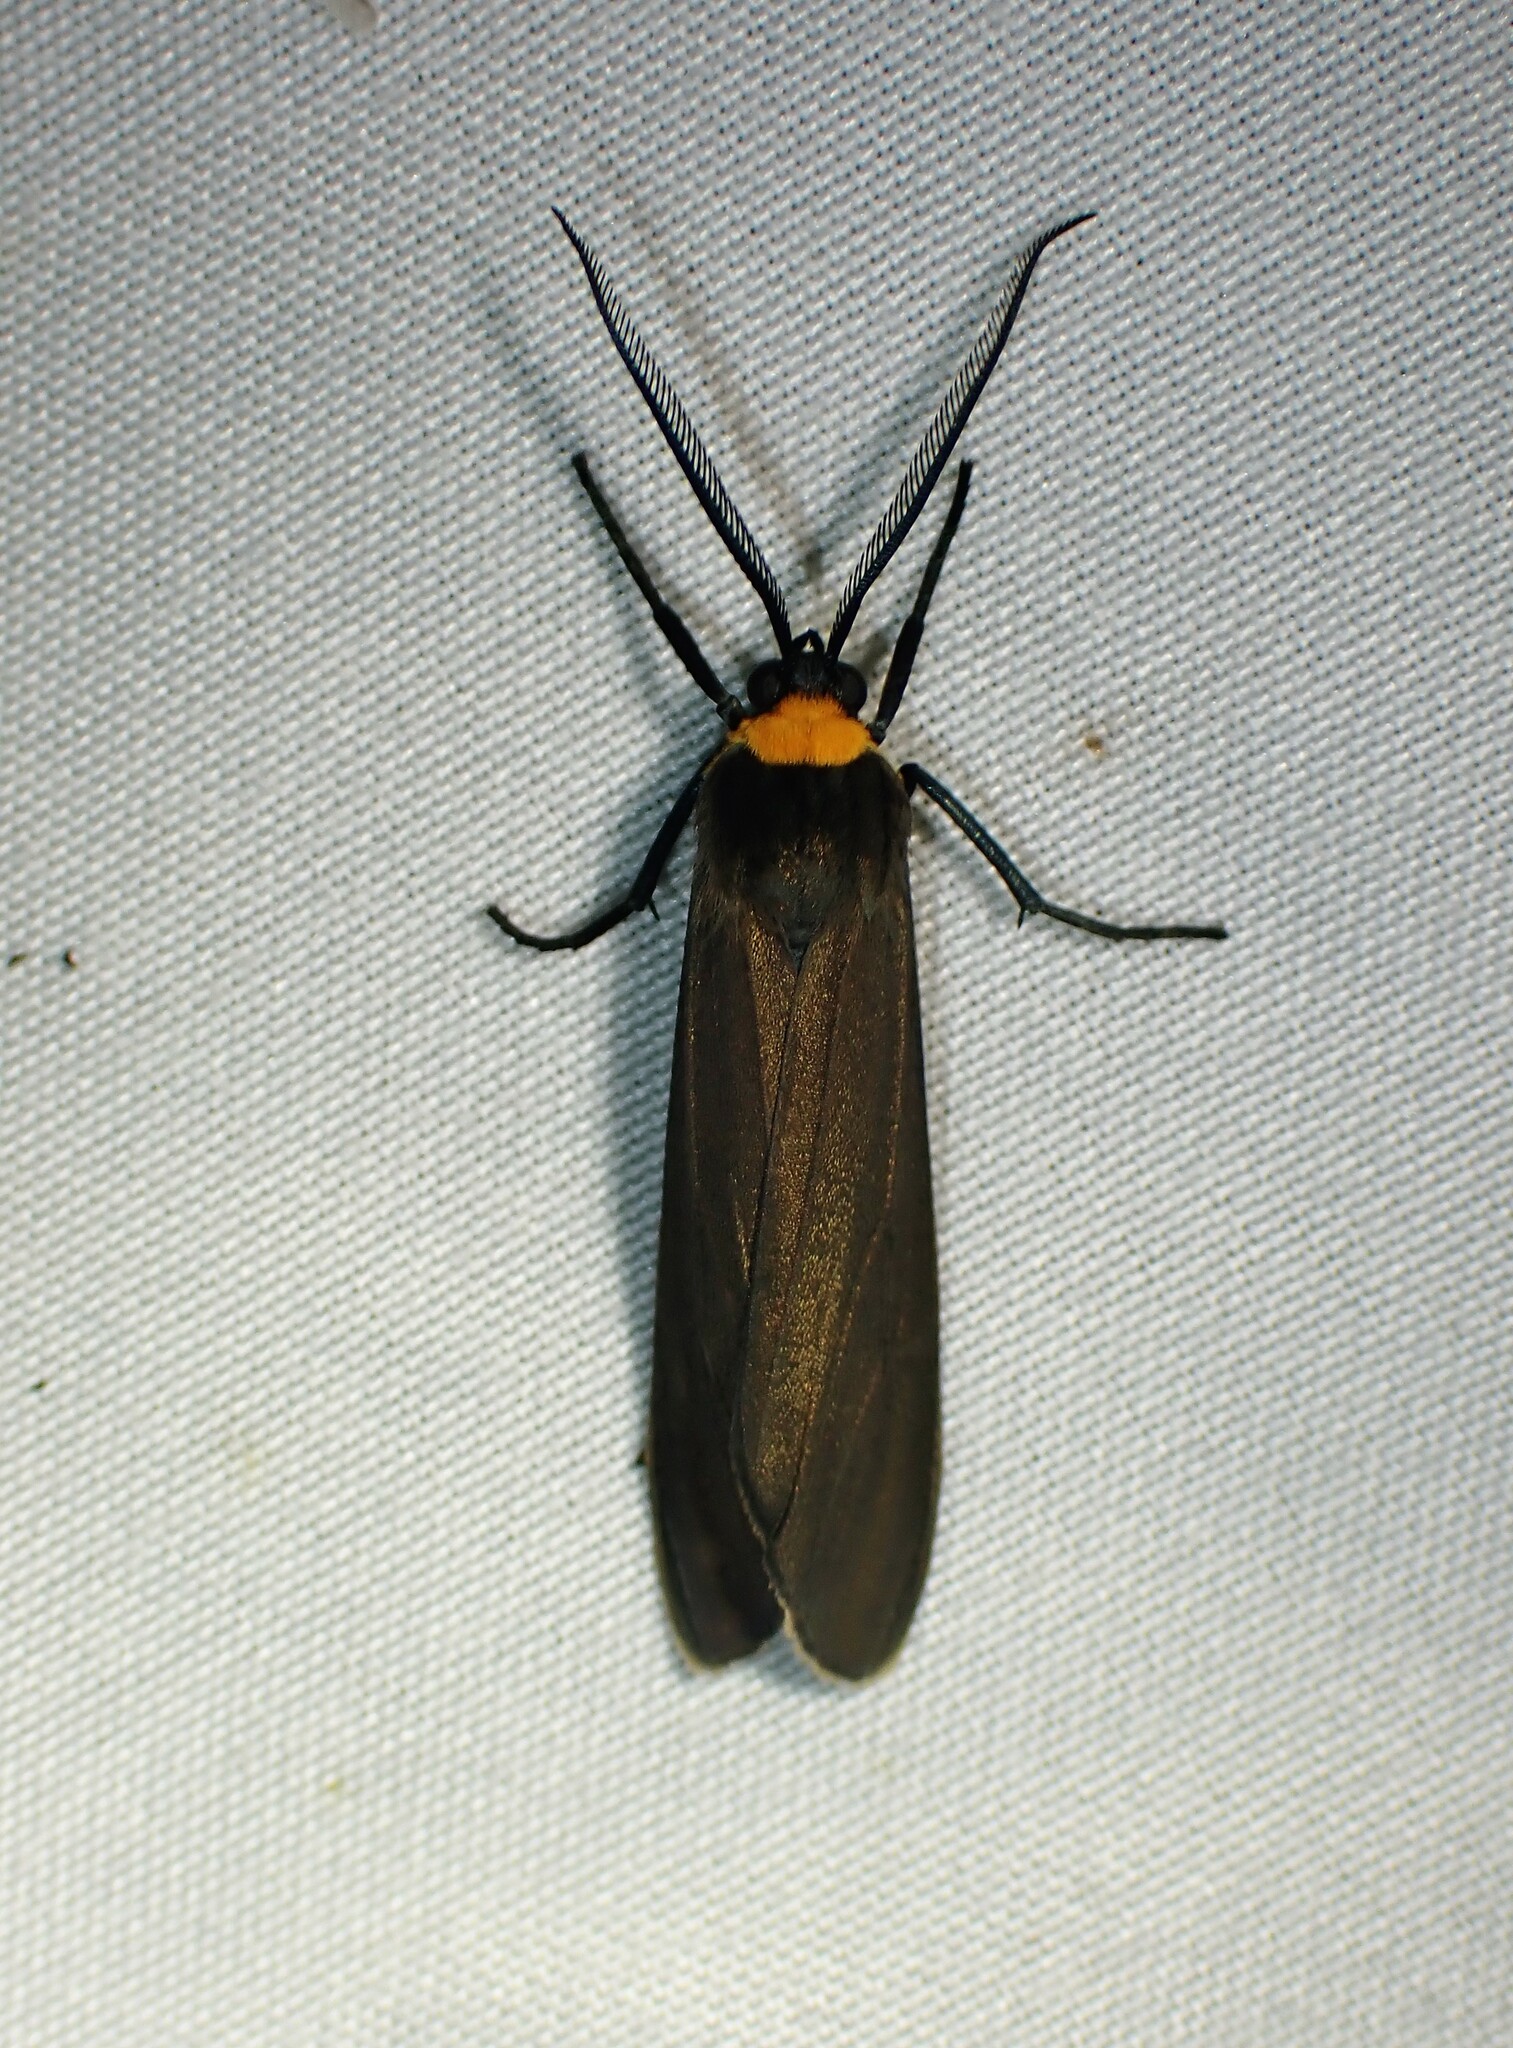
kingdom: Animalia
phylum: Arthropoda
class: Insecta
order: Lepidoptera
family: Erebidae
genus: Cisseps
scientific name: Cisseps fulvicollis
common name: Yellow-collared scape moth
